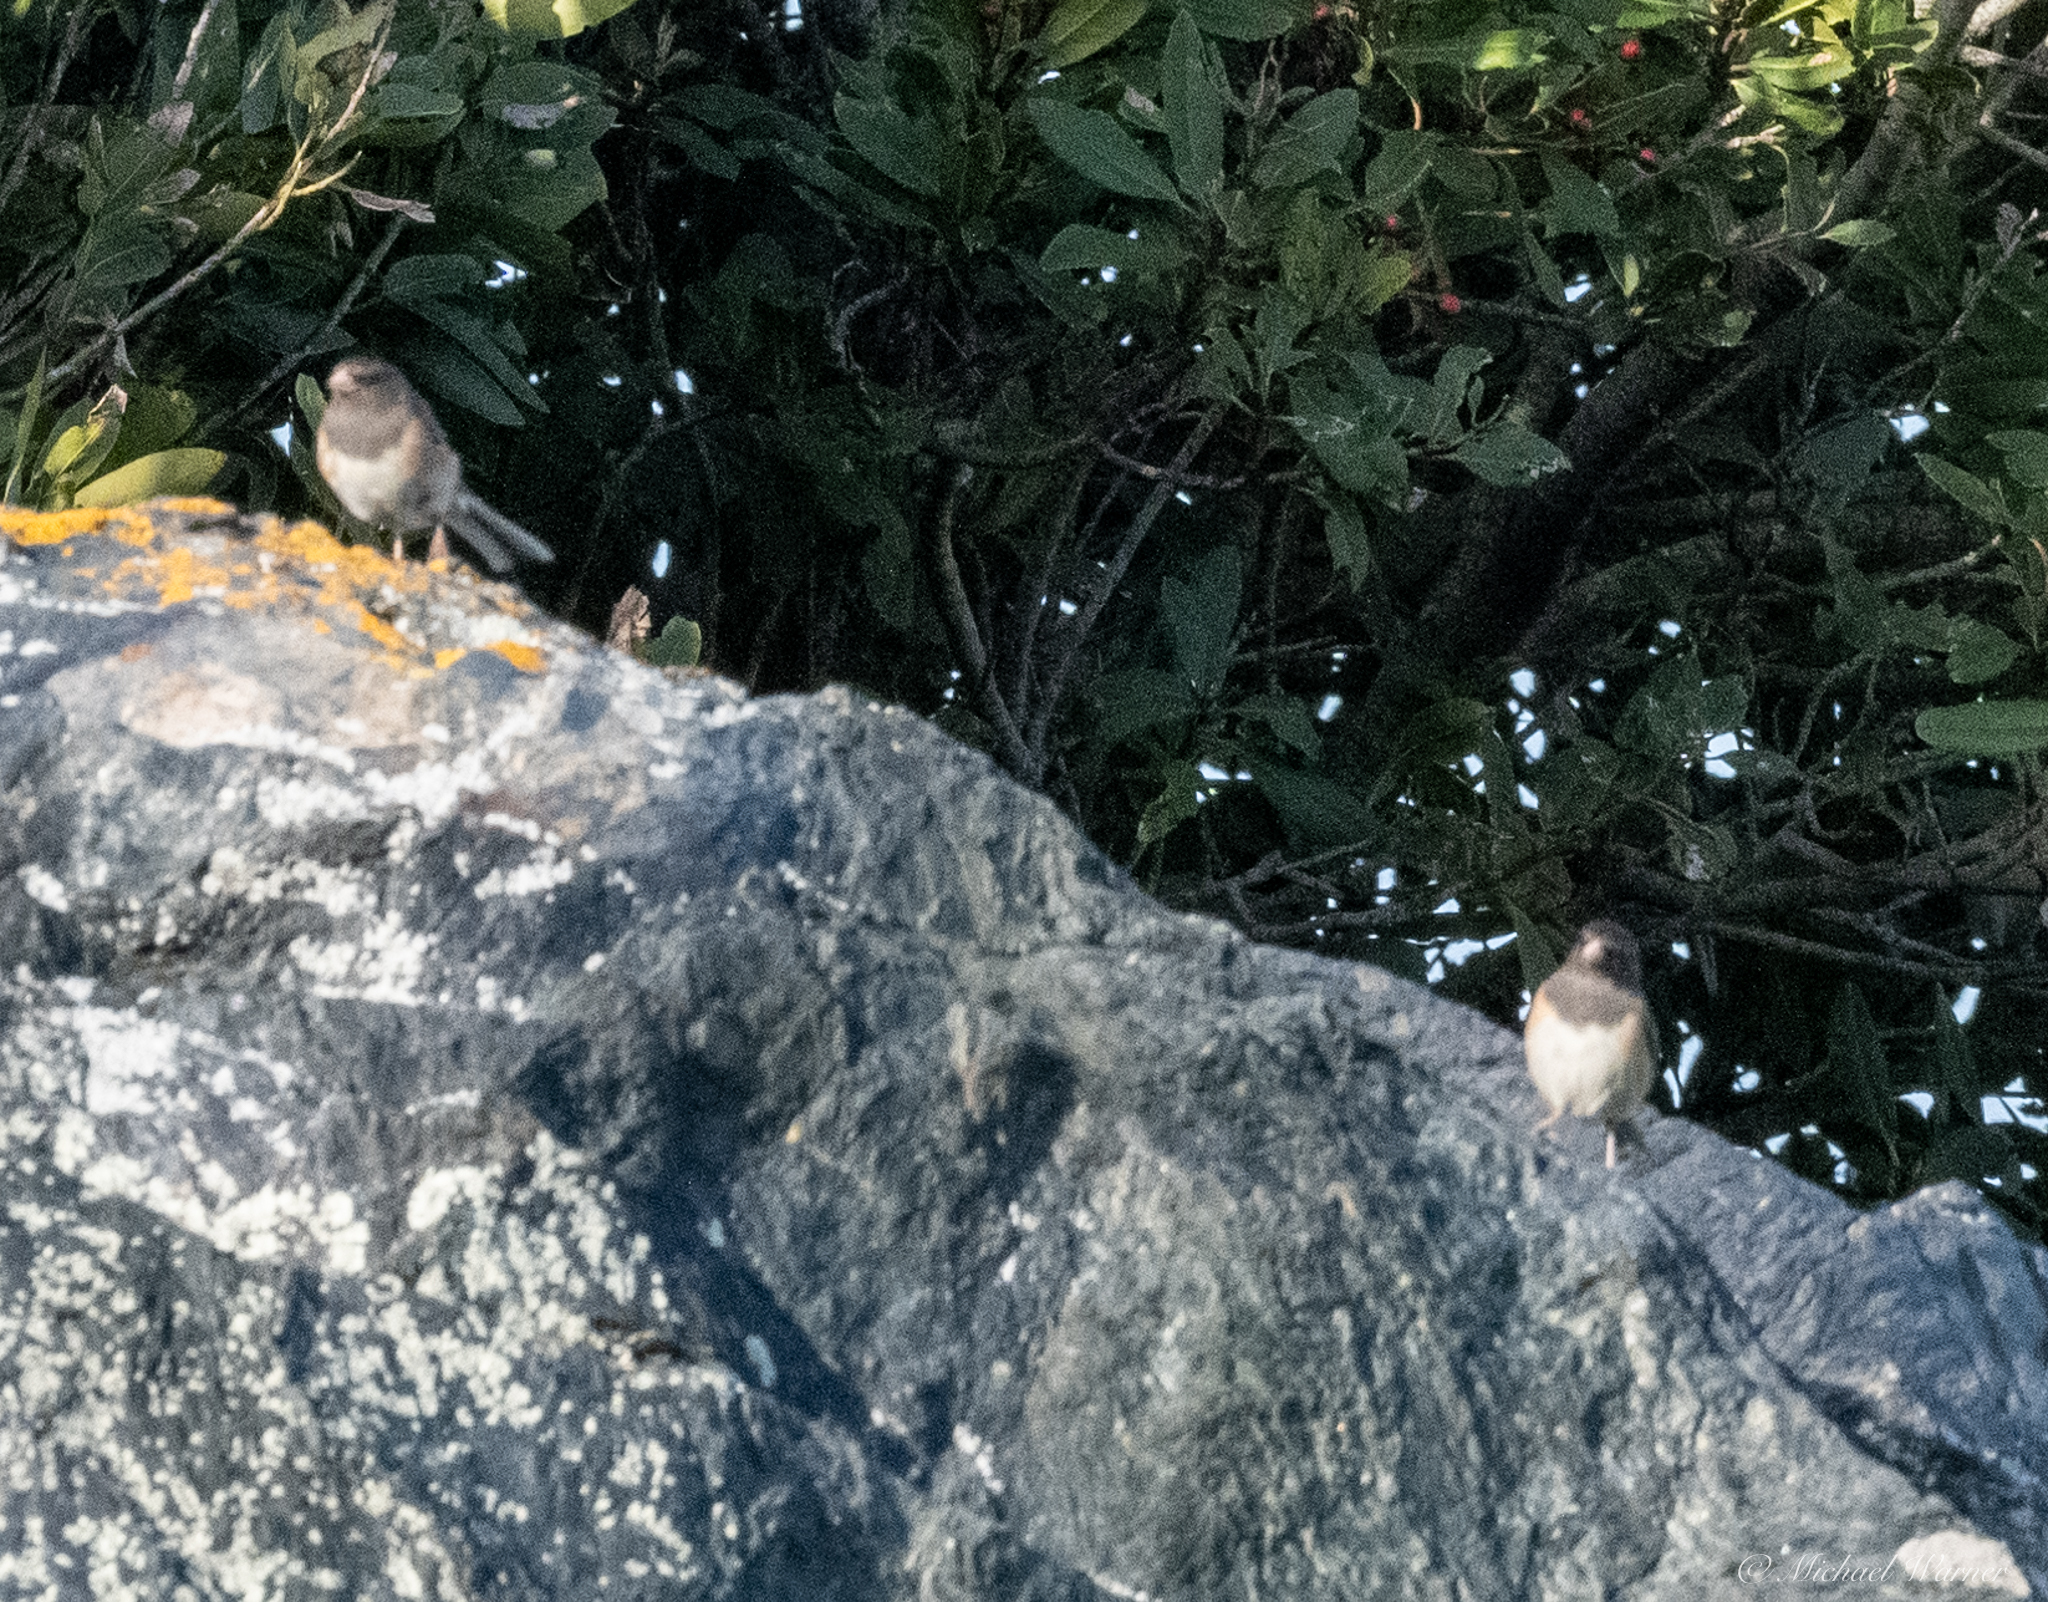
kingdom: Animalia
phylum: Chordata
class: Aves
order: Passeriformes
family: Passerellidae
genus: Junco
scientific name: Junco hyemalis
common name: Dark-eyed junco
